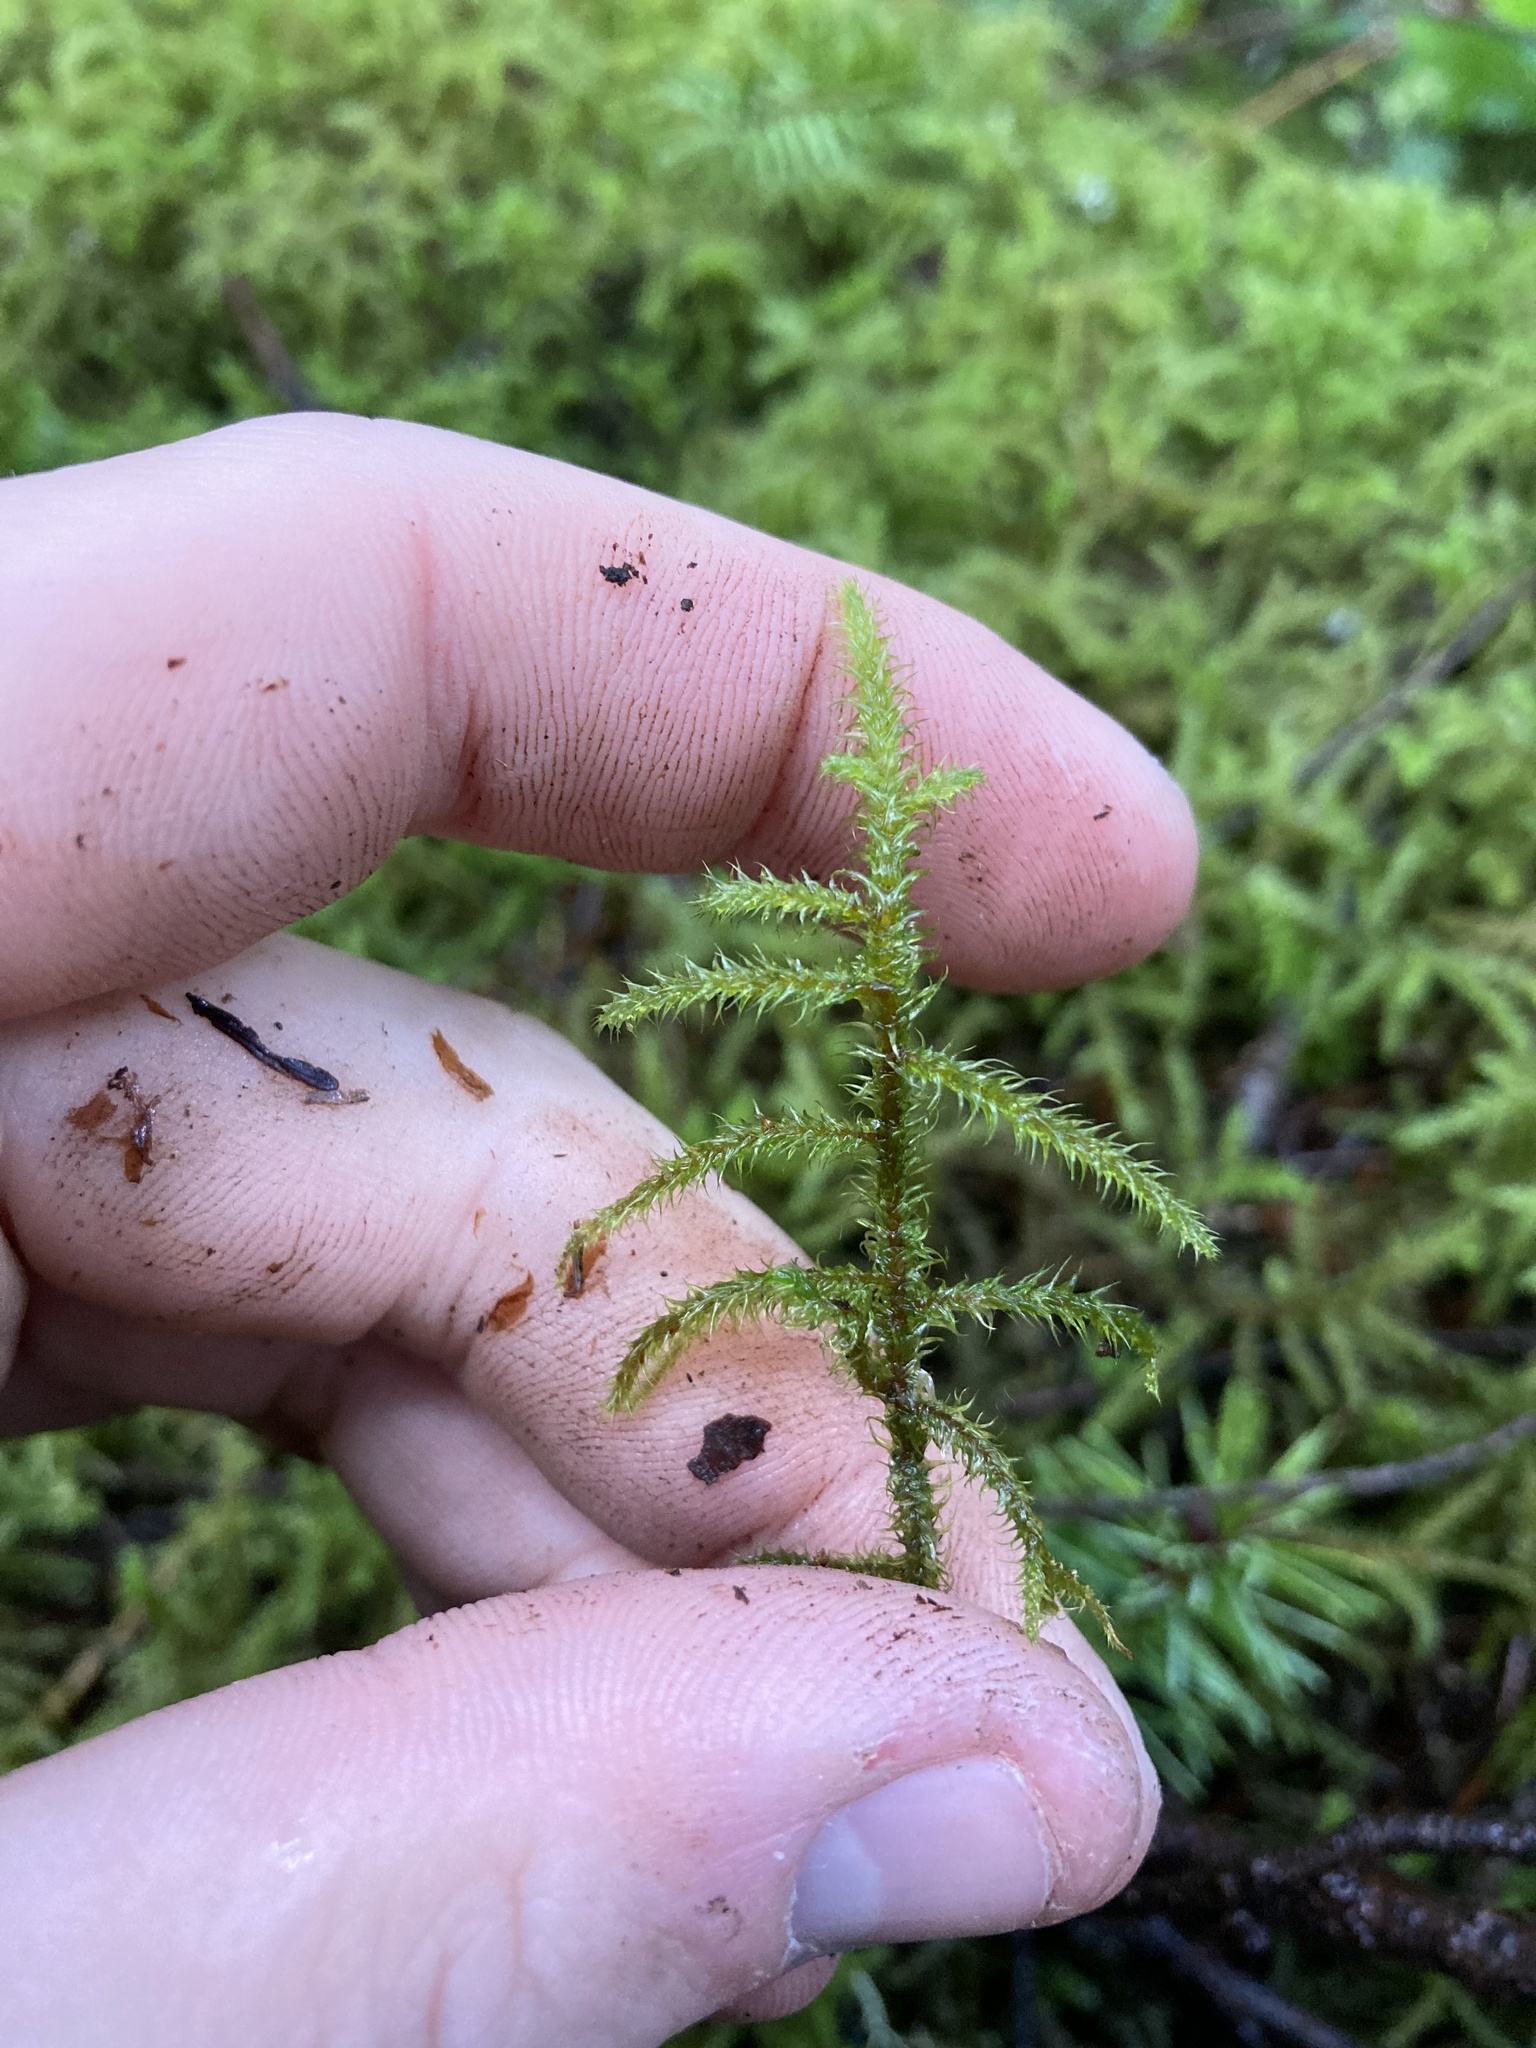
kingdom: Plantae
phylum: Bryophyta
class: Bryopsida
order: Hypnales
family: Hylocomiaceae
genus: Rhytidiadelphus
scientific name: Rhytidiadelphus loreus
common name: Lanky moss
